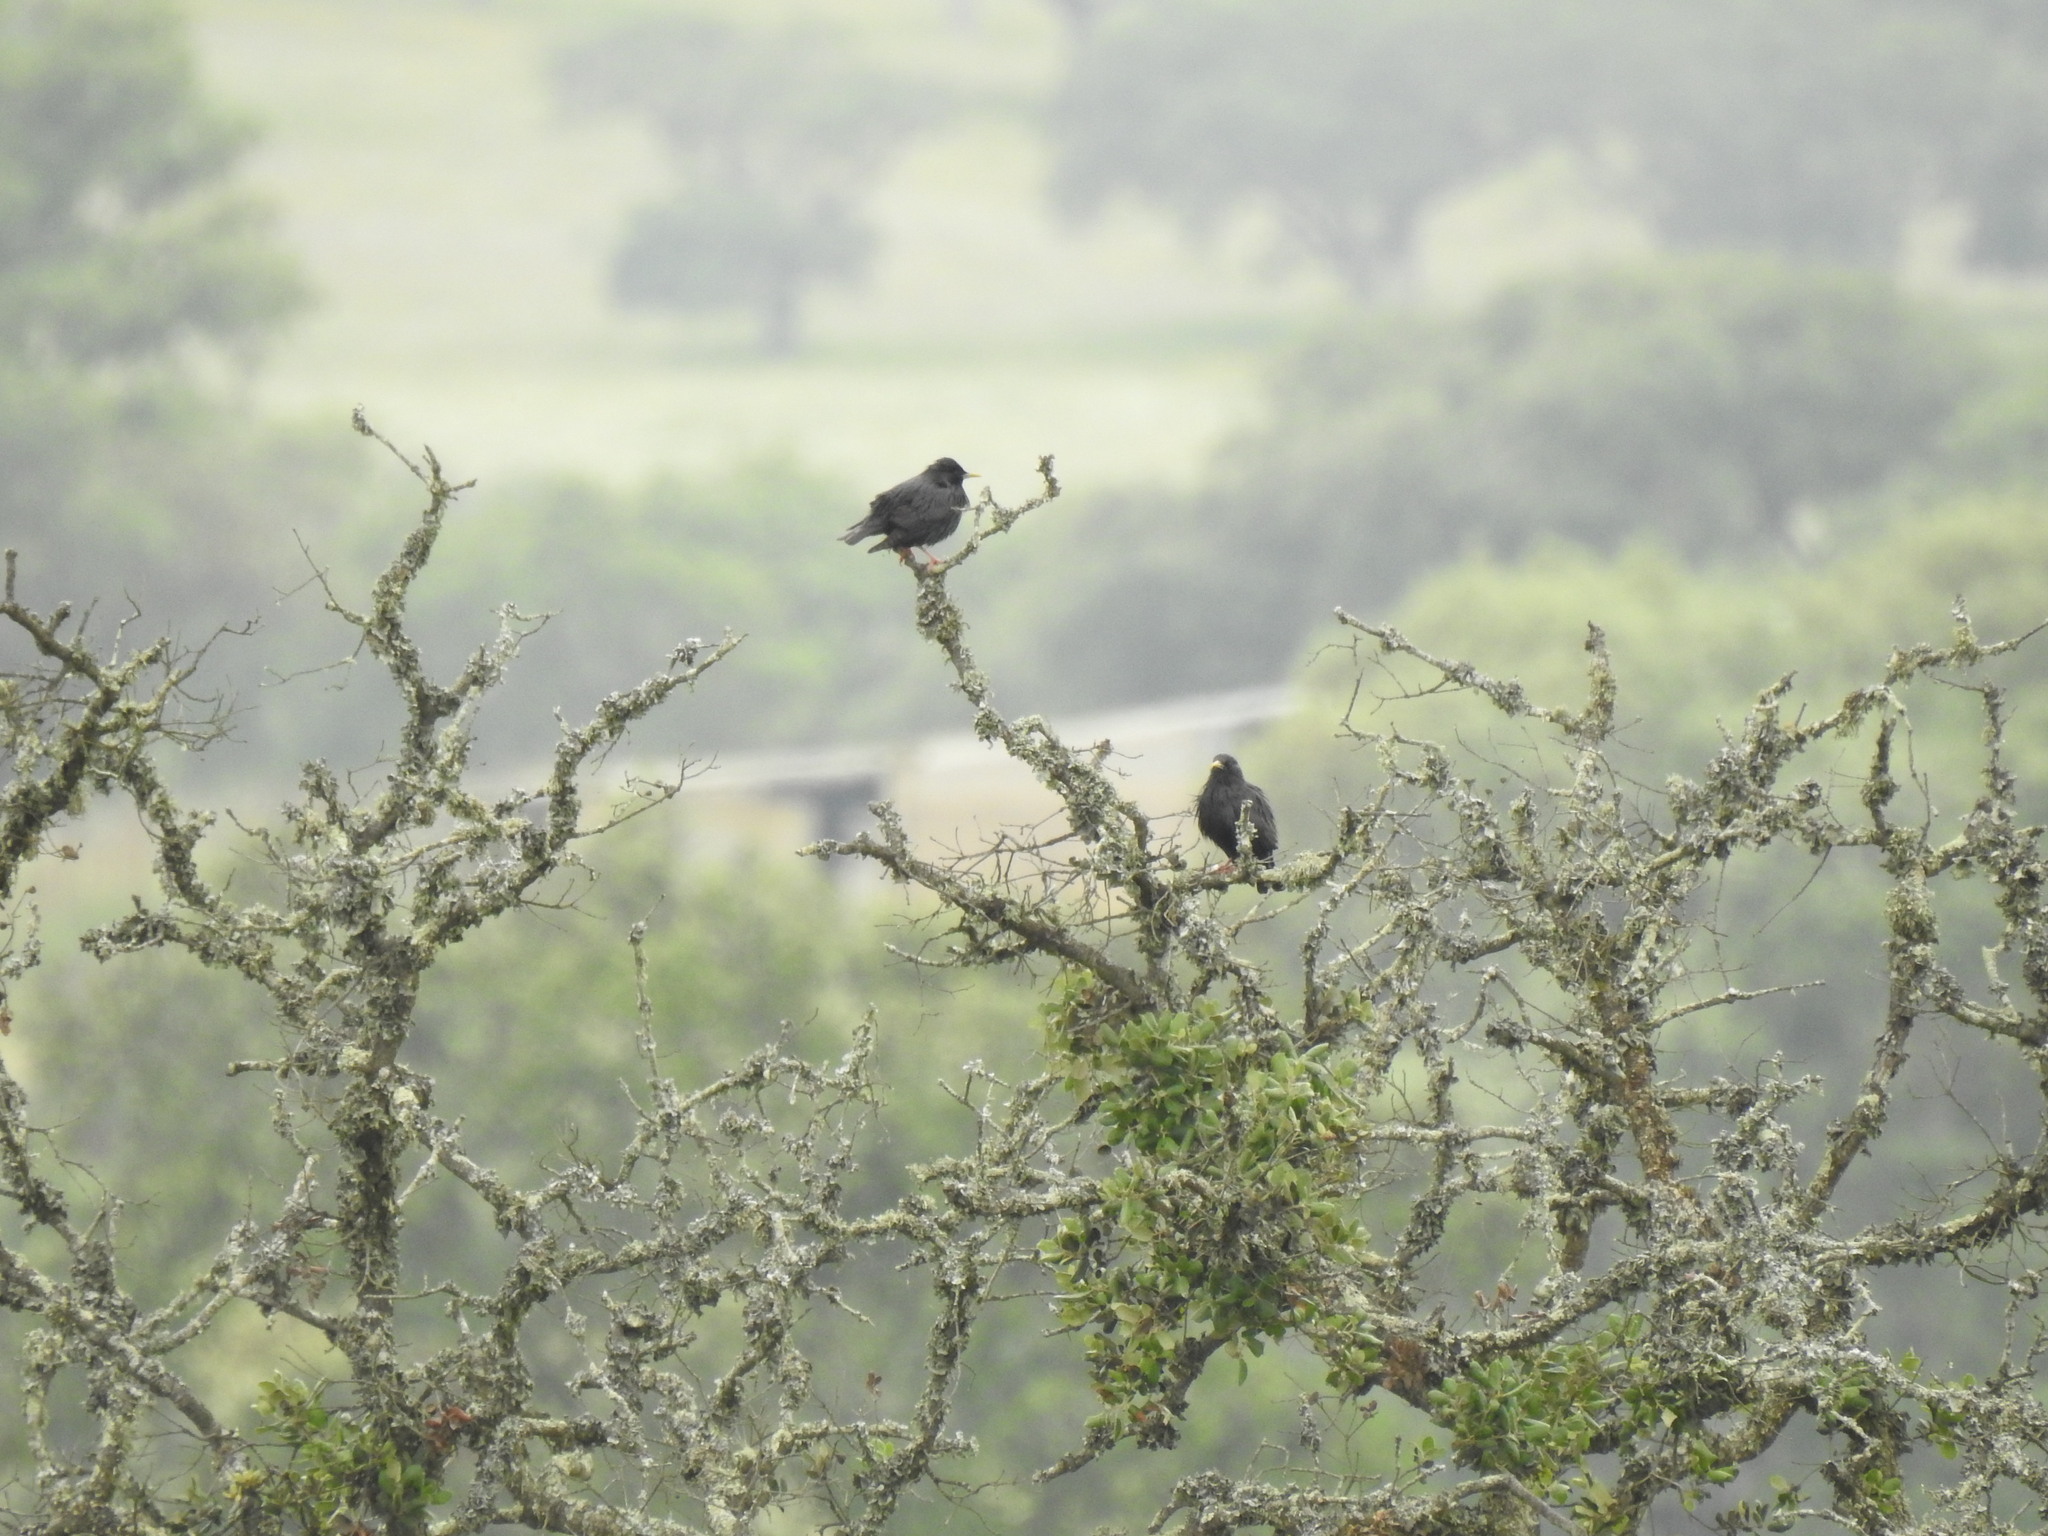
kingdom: Animalia
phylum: Chordata
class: Aves
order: Passeriformes
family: Sturnidae
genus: Sturnus
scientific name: Sturnus unicolor
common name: Spotless starling
